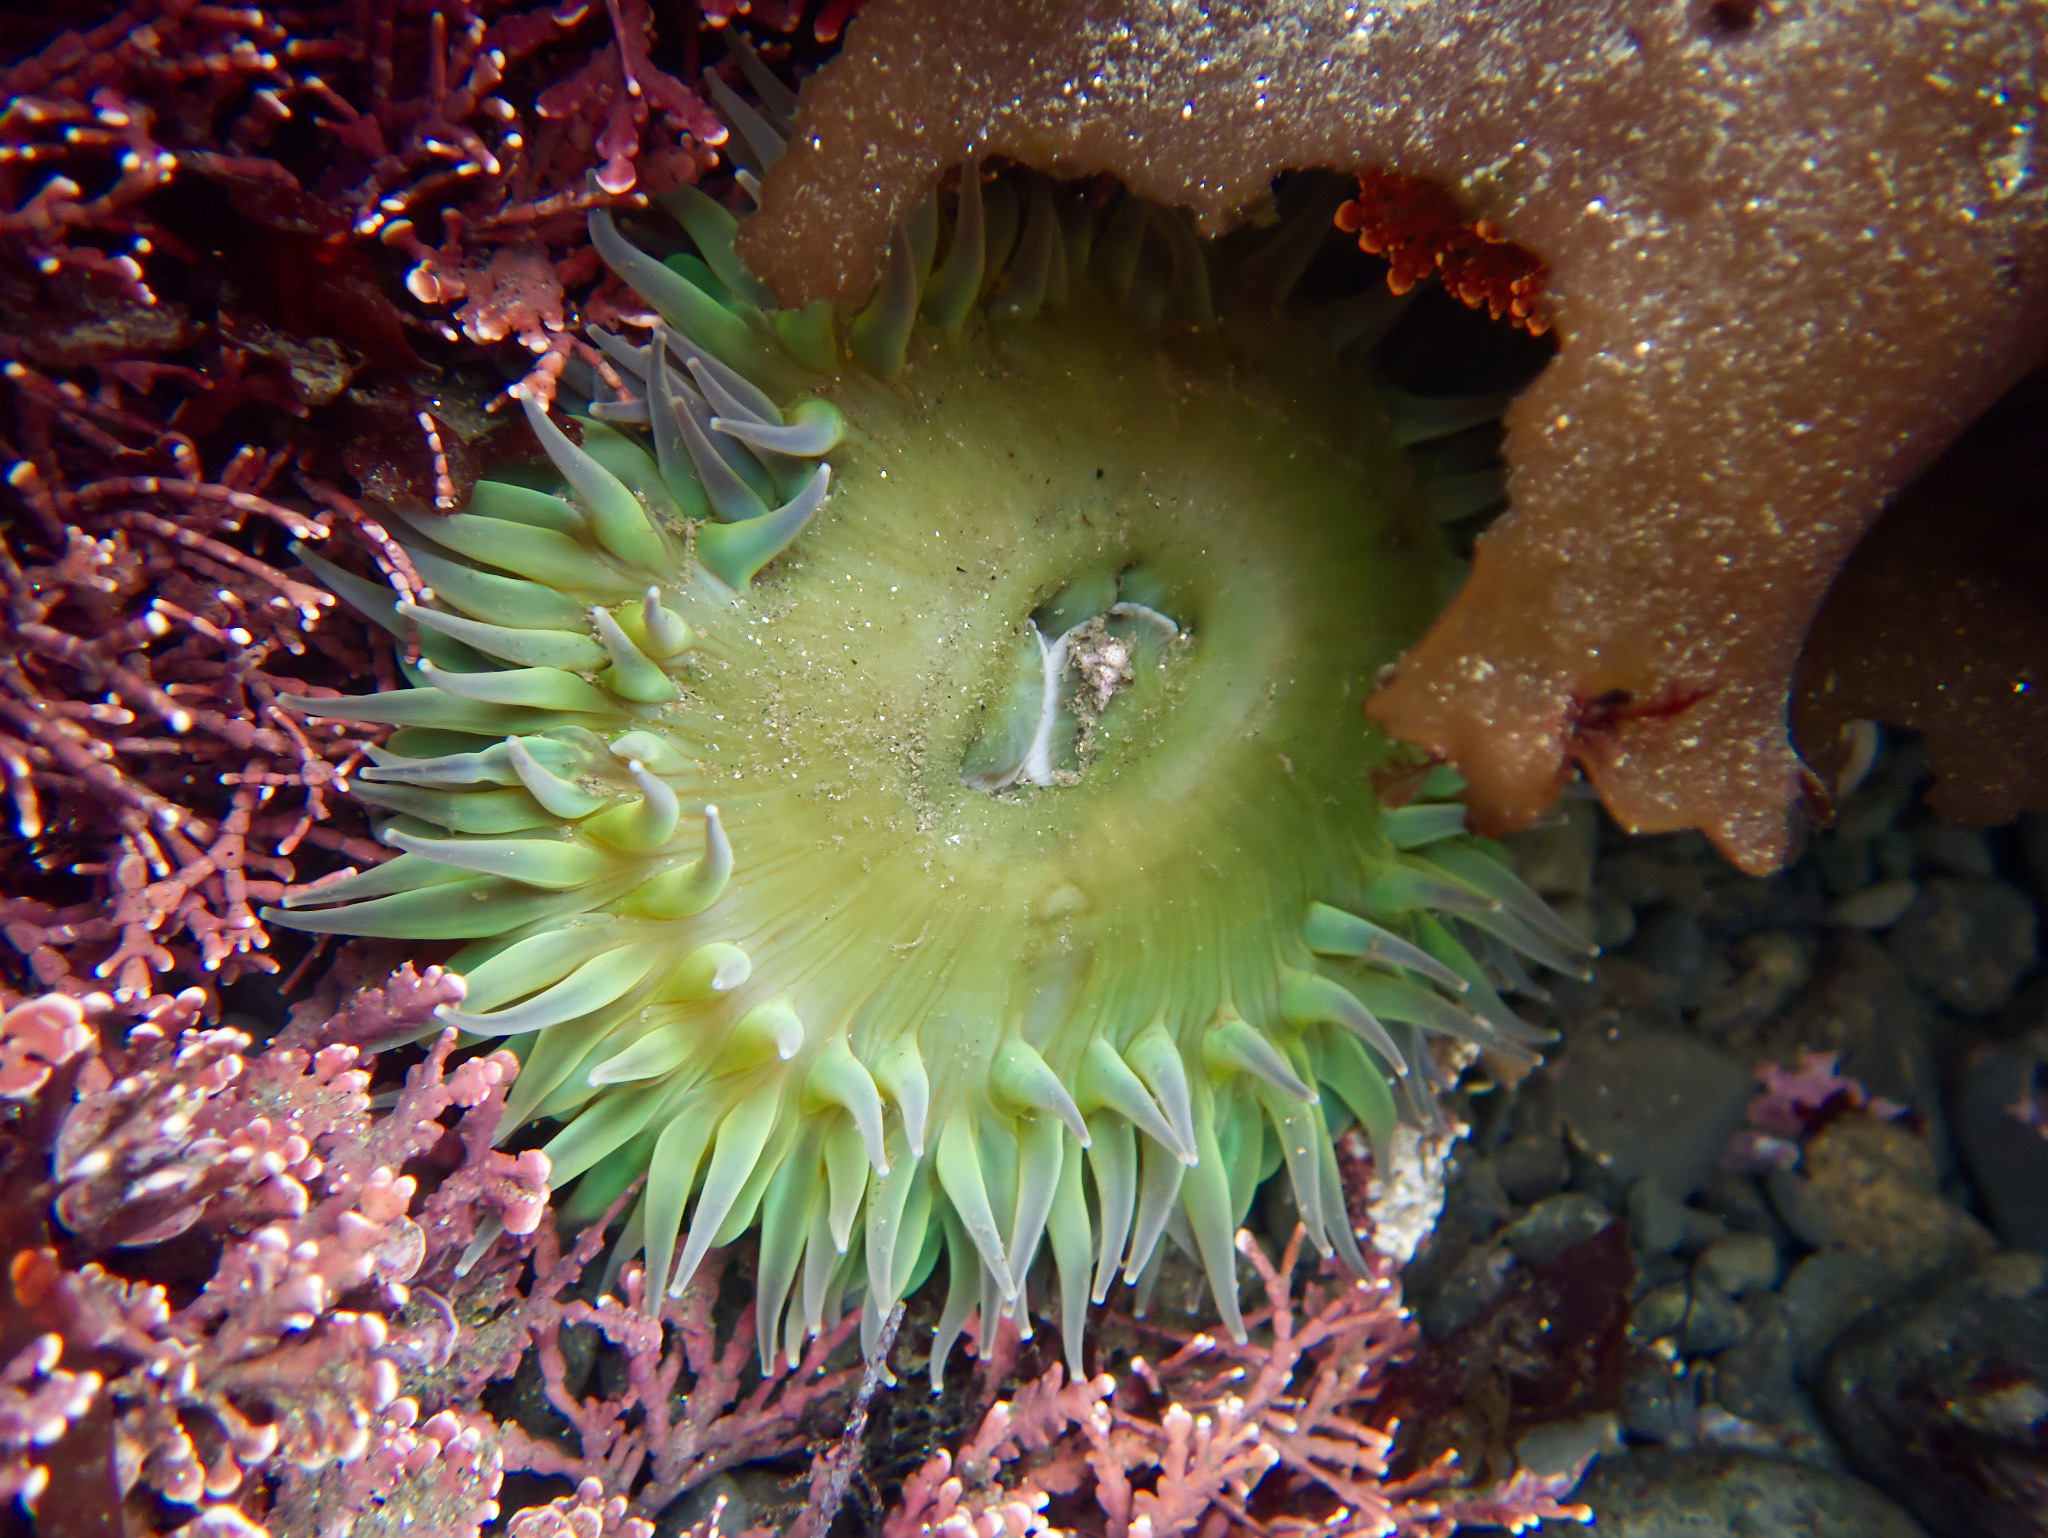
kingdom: Animalia
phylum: Cnidaria
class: Anthozoa
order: Actiniaria
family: Actiniidae
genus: Anthopleura
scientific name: Anthopleura xanthogrammica
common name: Giant green anemone
